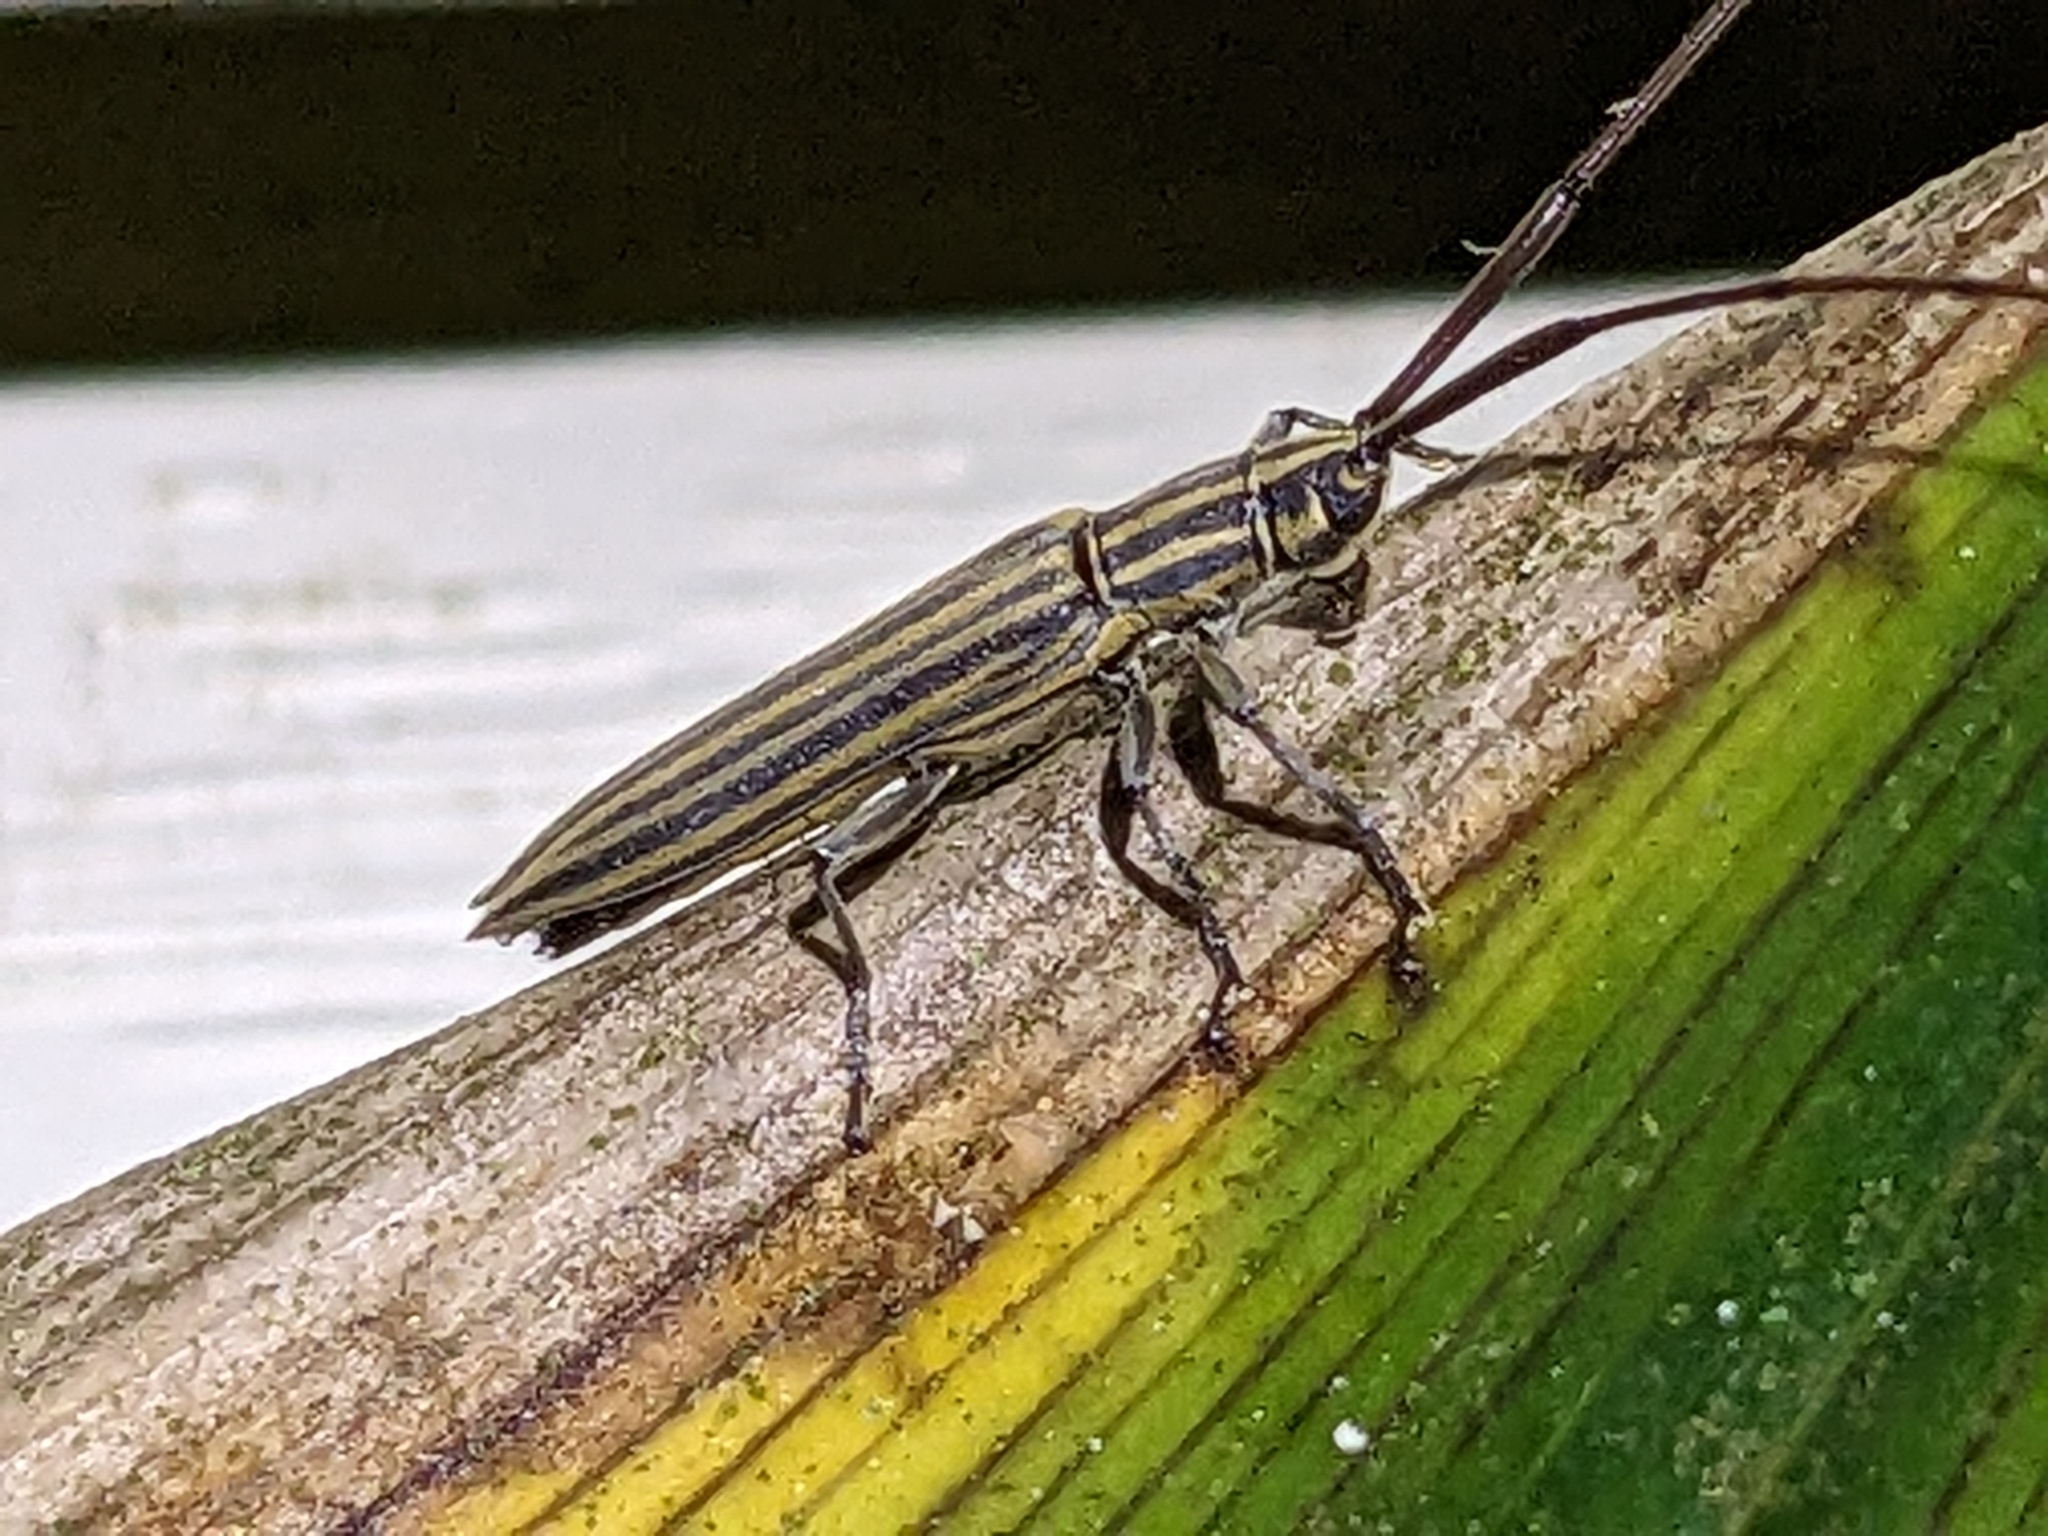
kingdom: Animalia
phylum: Arthropoda
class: Insecta
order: Coleoptera
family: Cerambycidae
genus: Hippopsis
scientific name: Hippopsis
